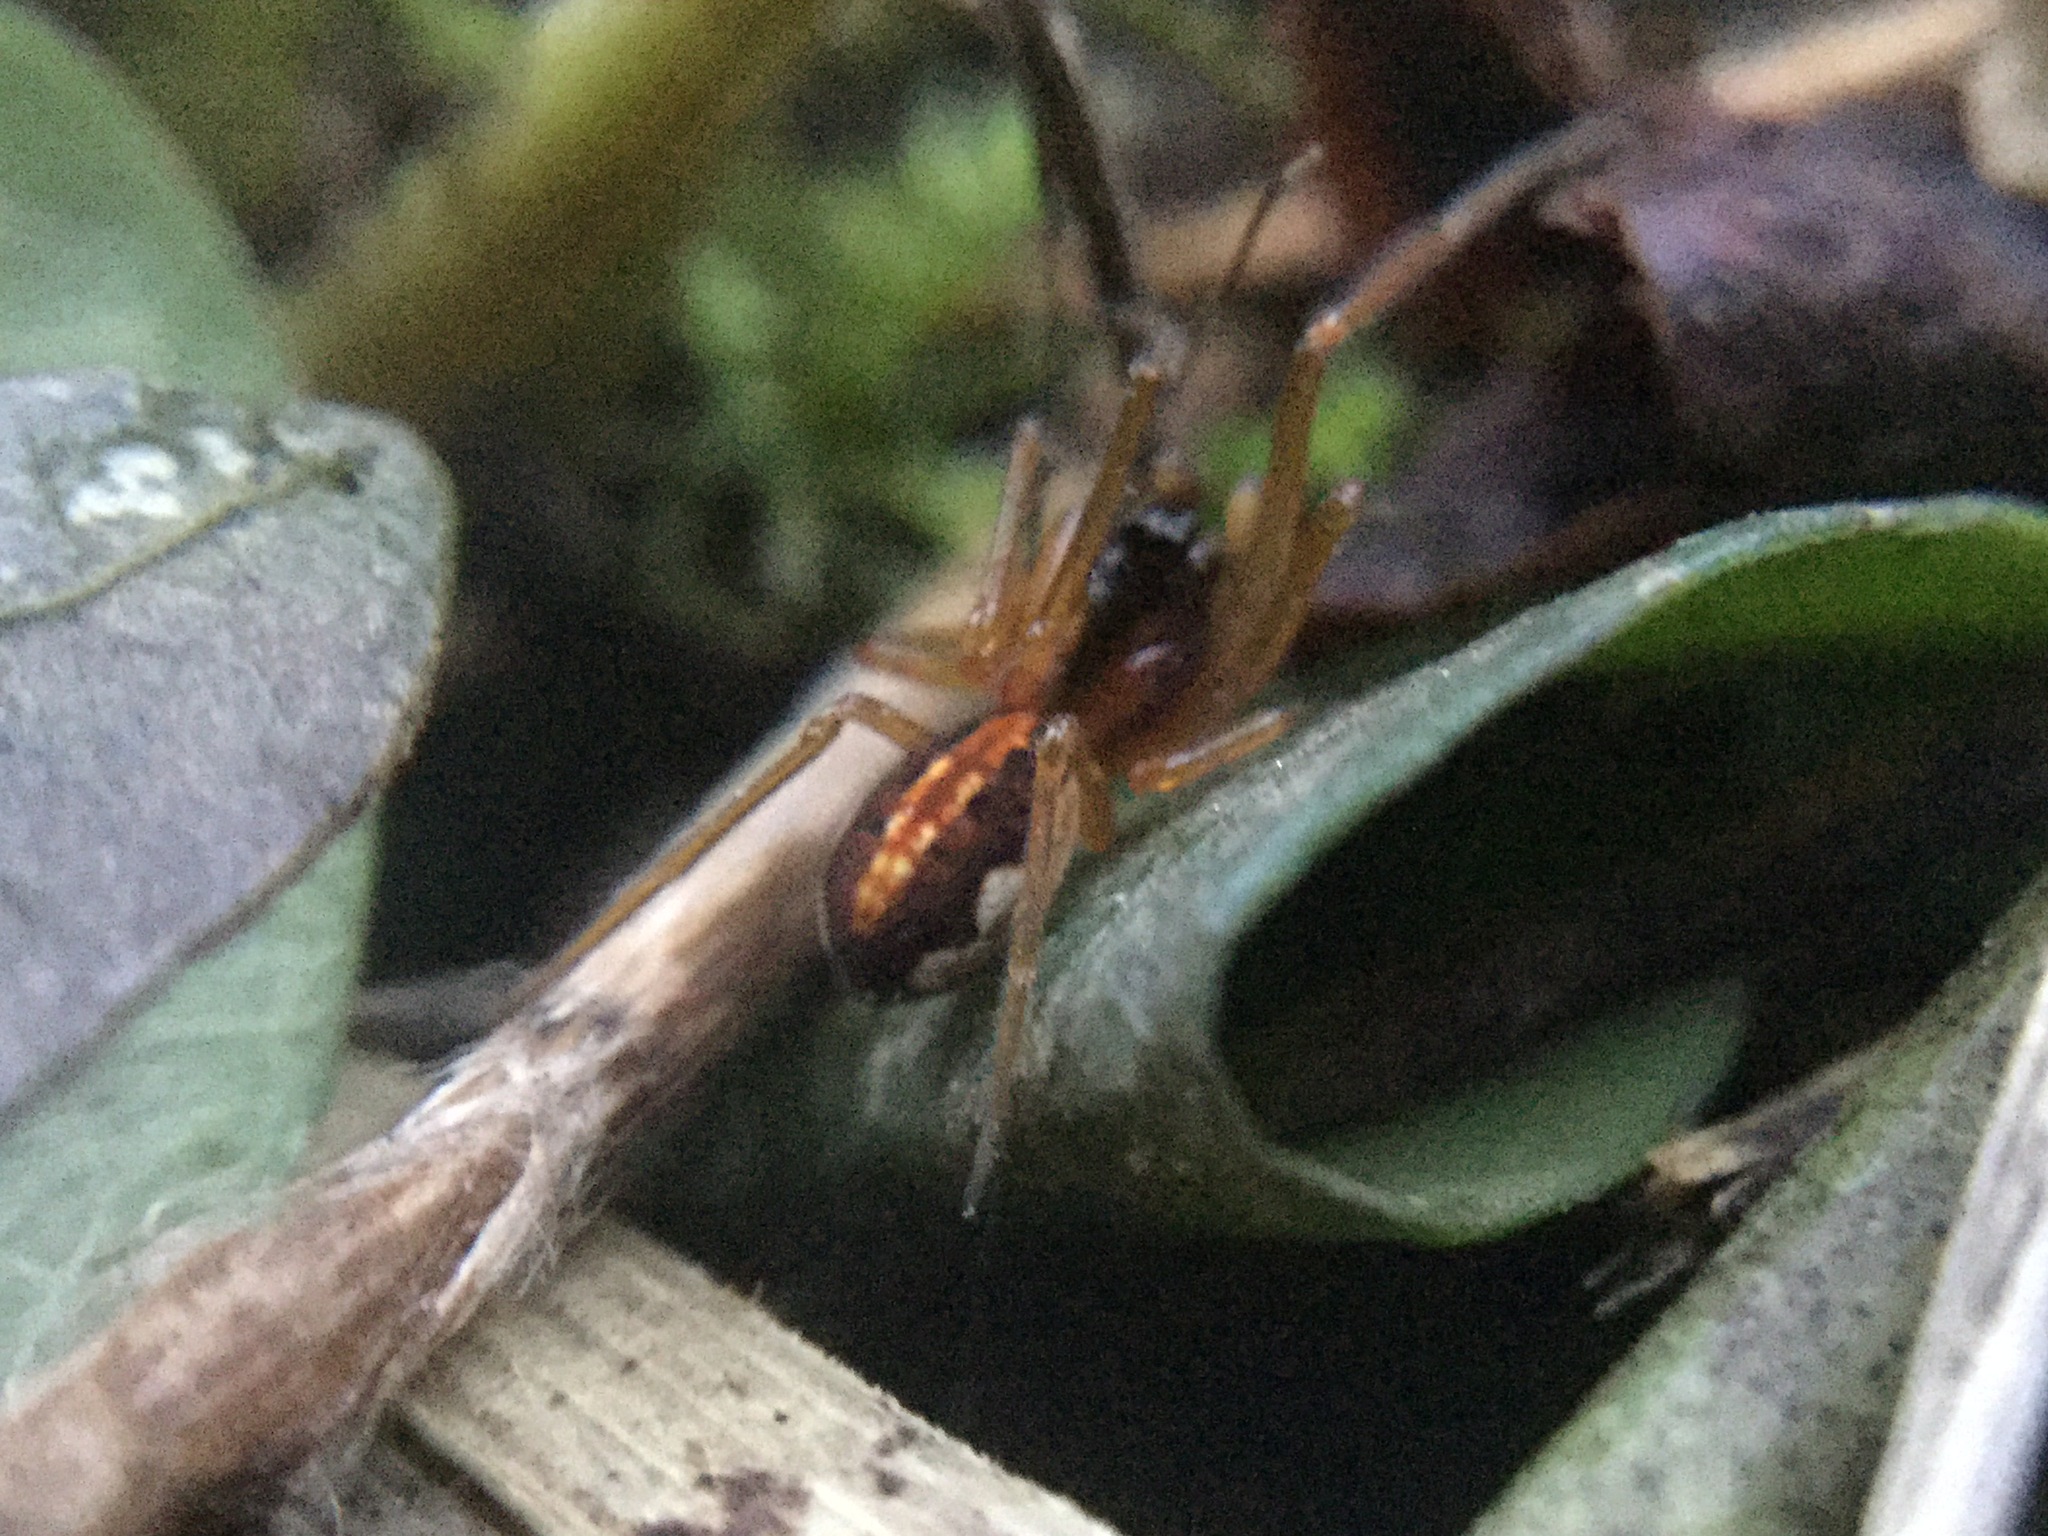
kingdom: Animalia
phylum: Arthropoda
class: Arachnida
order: Araneae
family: Tetragnathidae
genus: Pachygnatha
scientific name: Pachygnatha autumnalis
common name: Big-eyed thick-jawed spider
